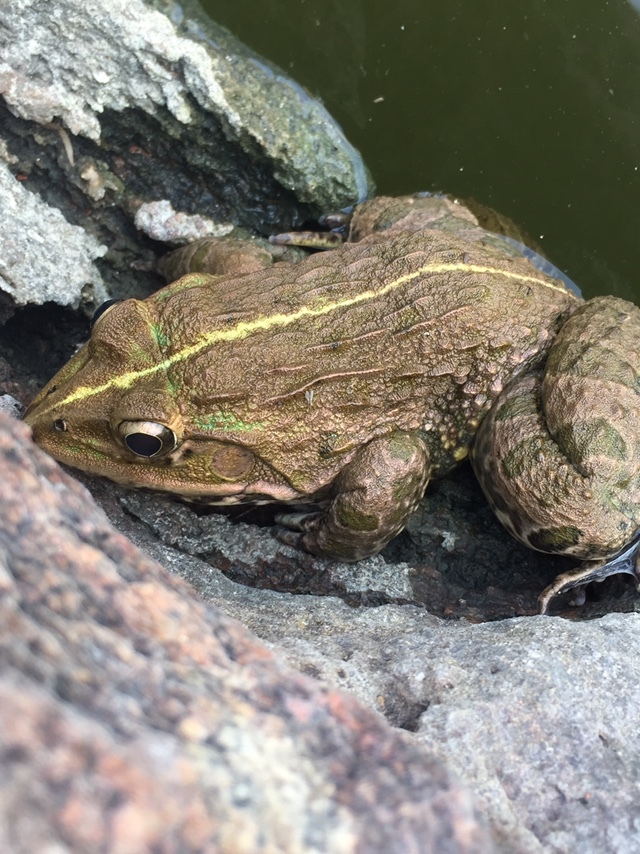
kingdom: Animalia
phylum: Chordata
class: Amphibia
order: Anura
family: Dicroglossidae
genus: Hoplobatrachus
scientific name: Hoplobatrachus tigerinus
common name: Indian bullfrog
